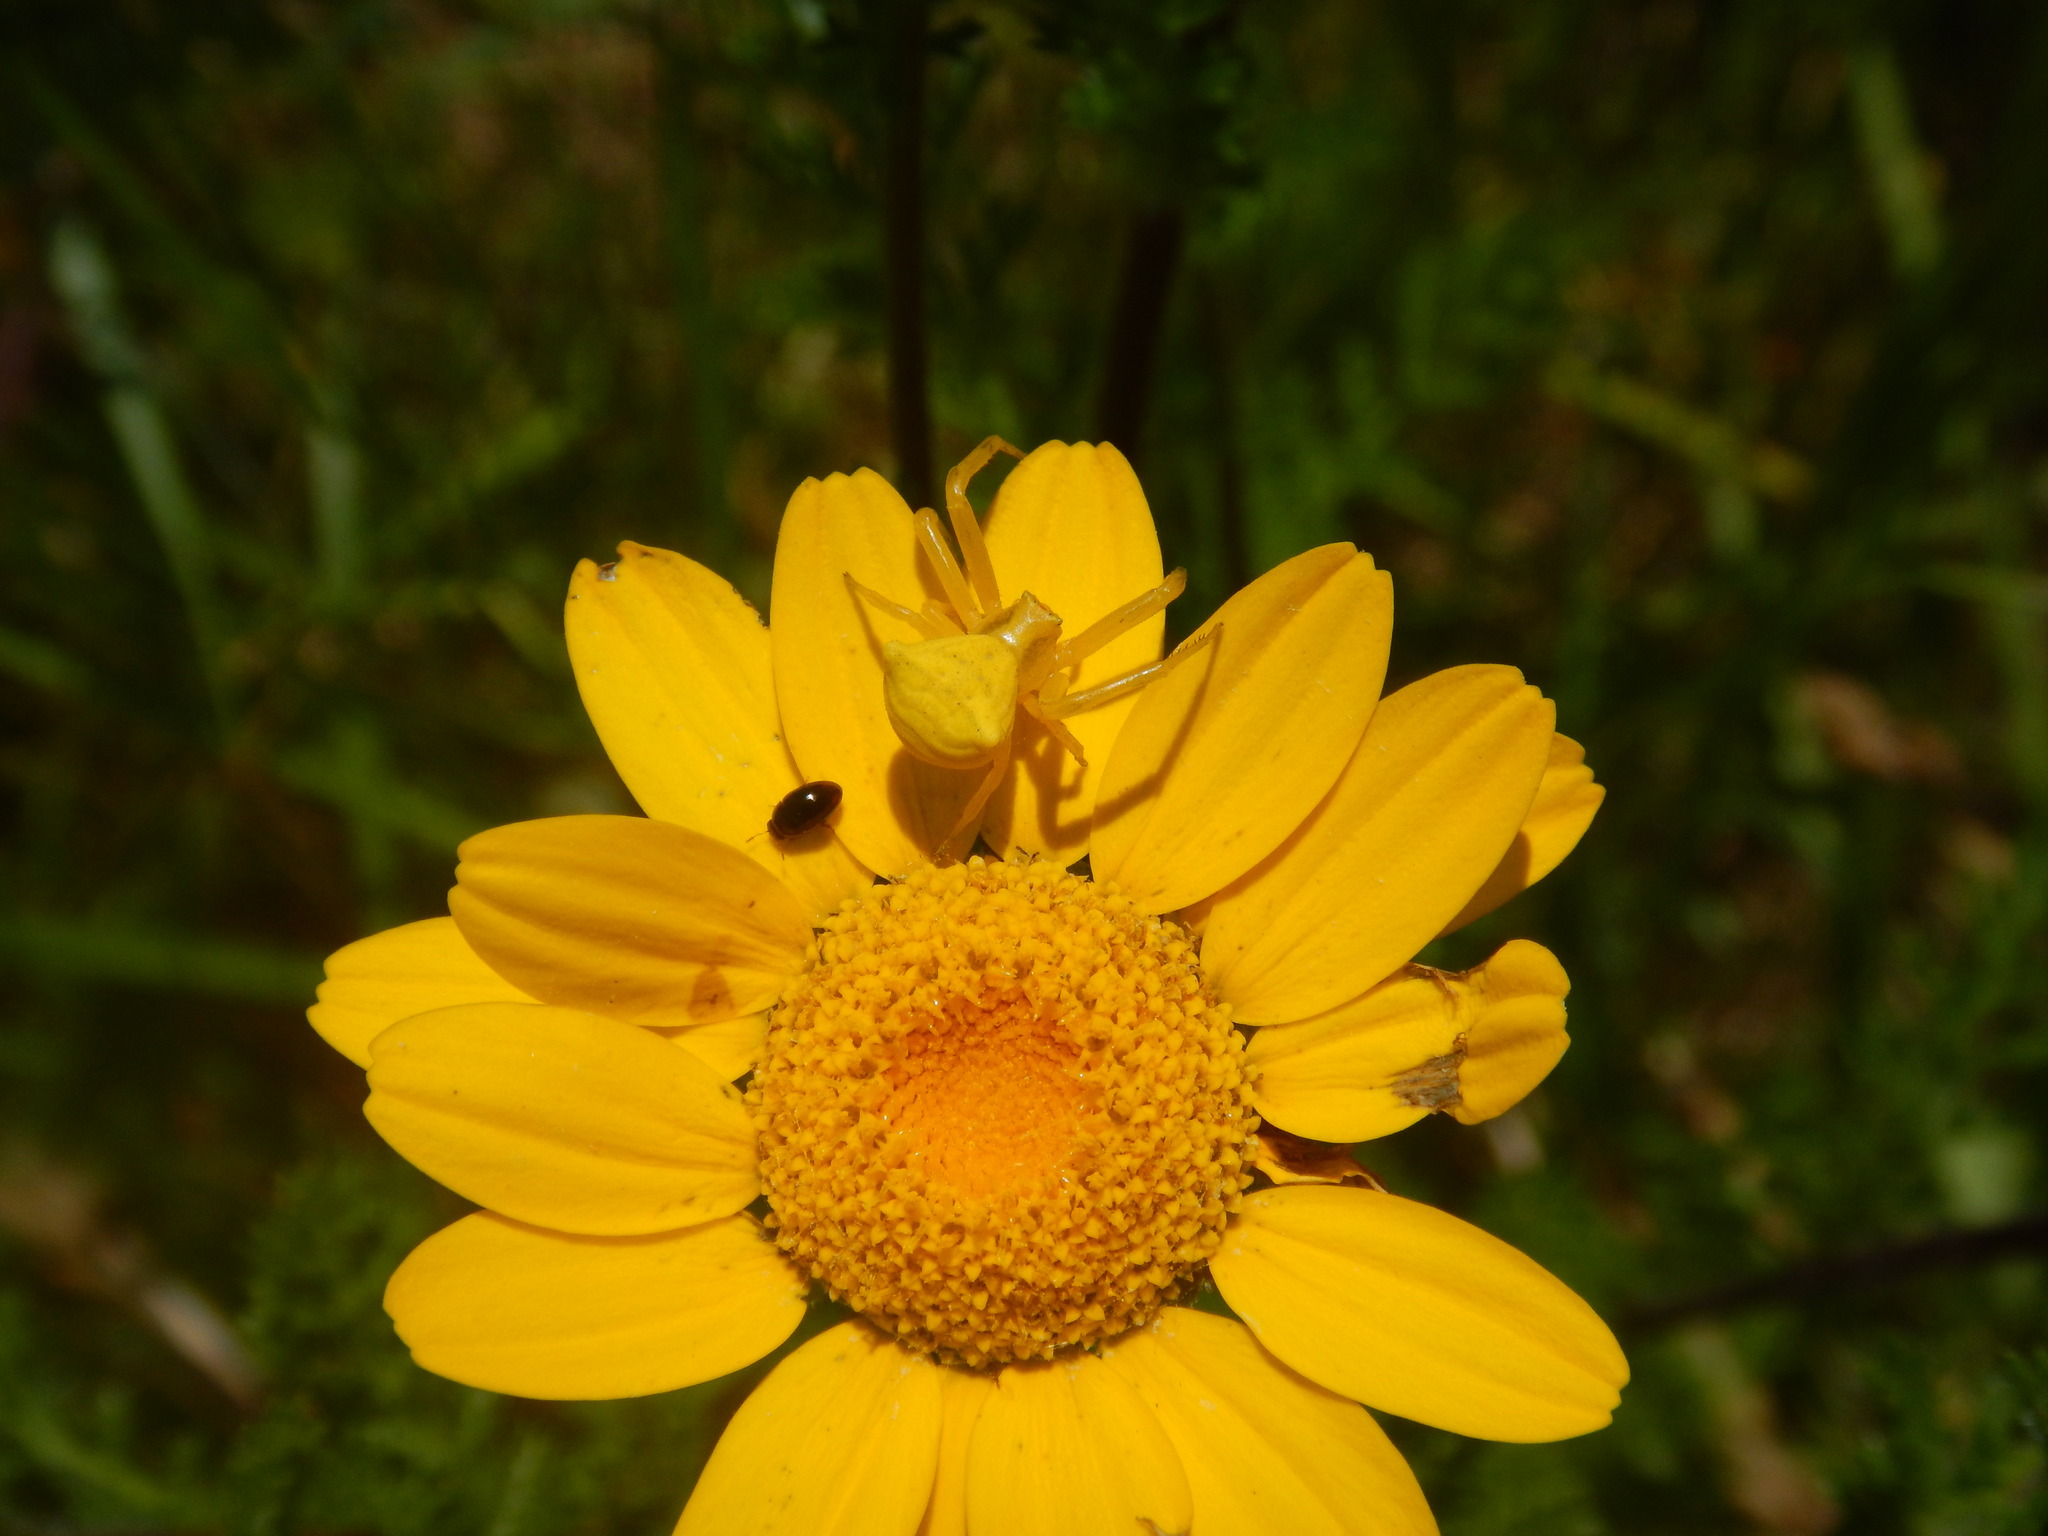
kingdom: Animalia
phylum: Arthropoda
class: Arachnida
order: Araneae
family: Thomisidae
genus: Thomisus
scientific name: Thomisus onustus
